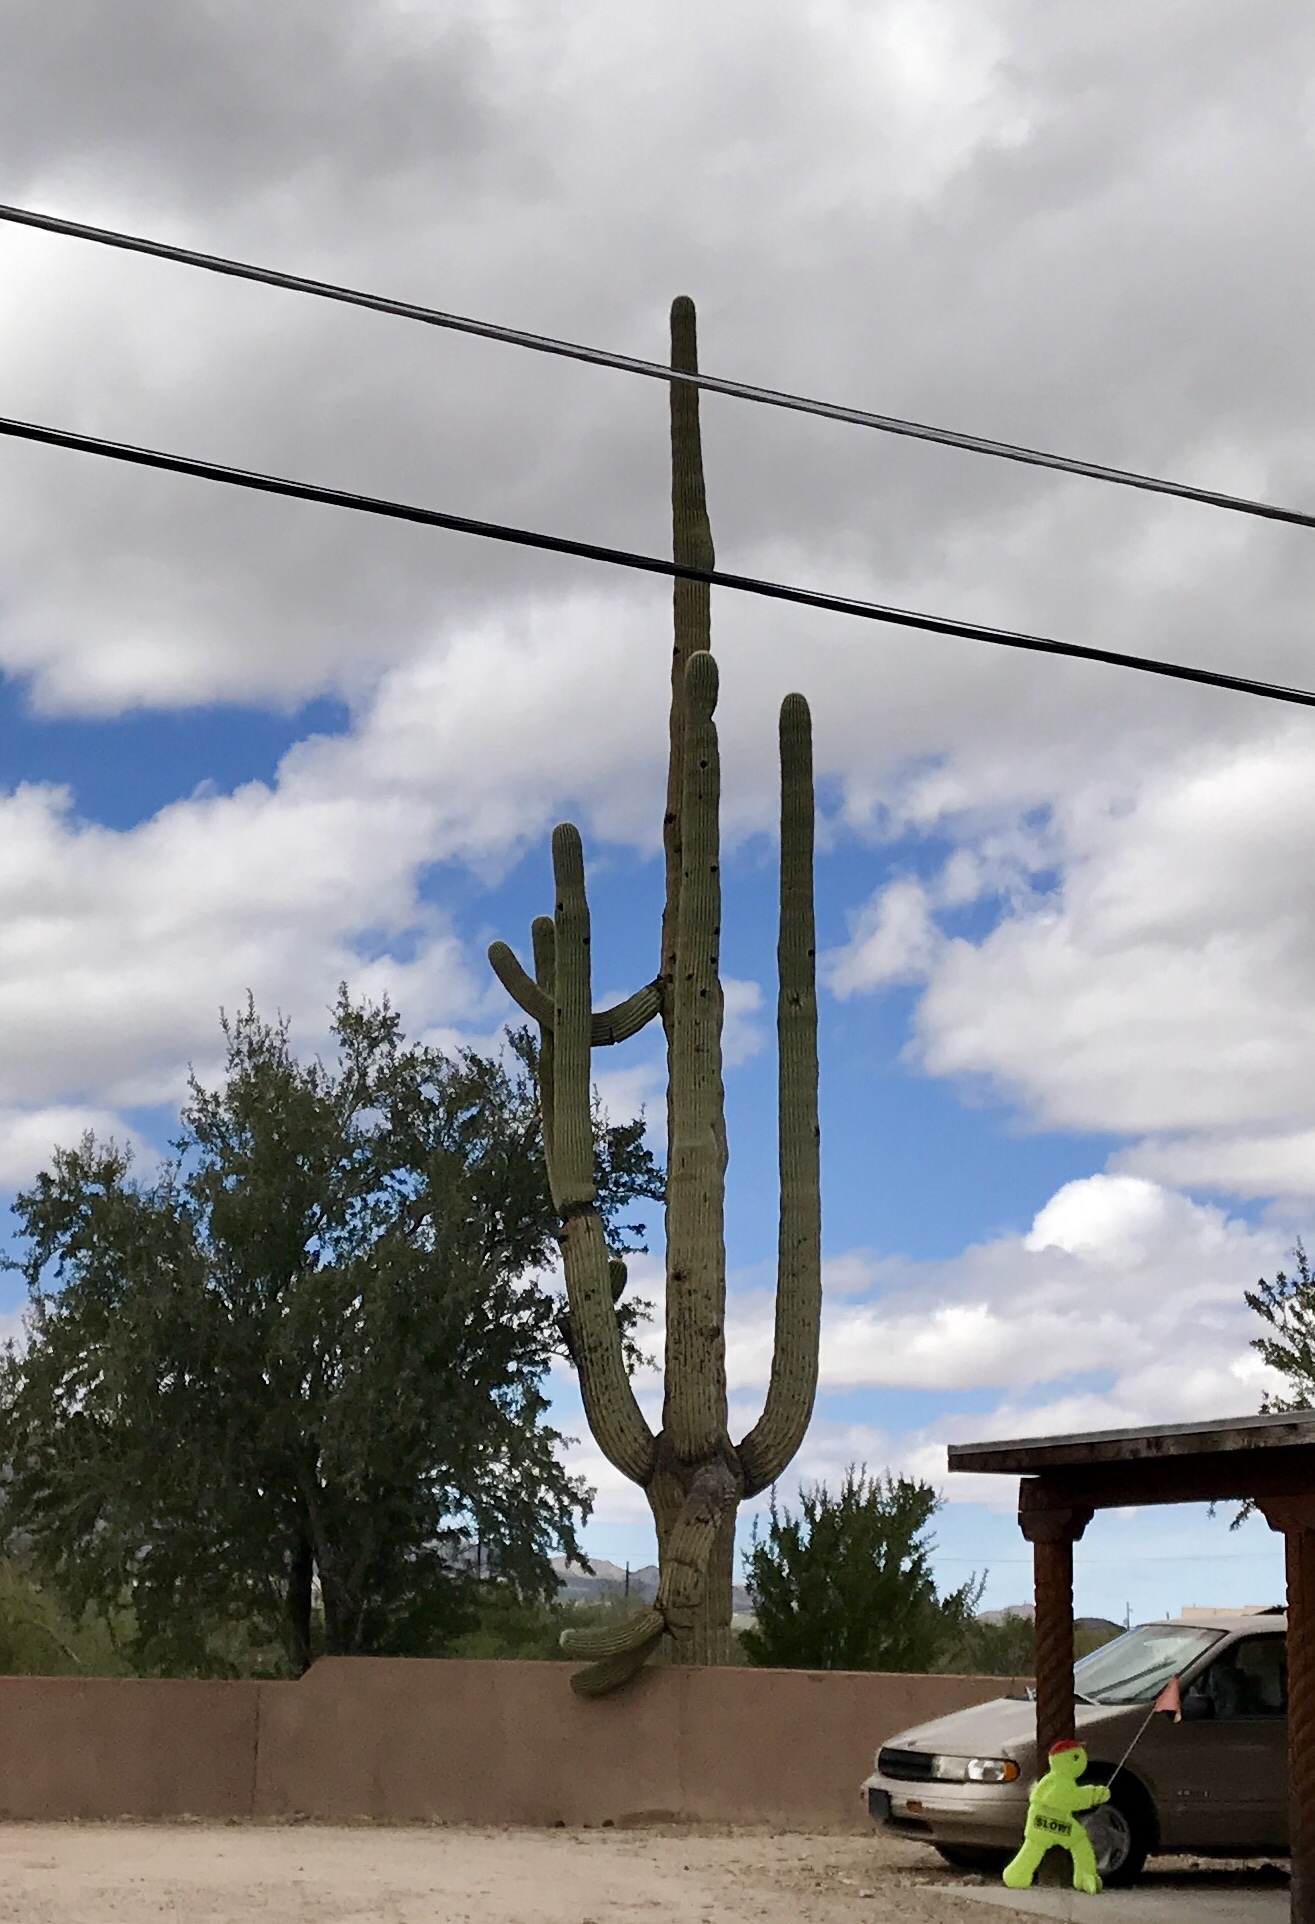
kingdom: Plantae
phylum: Tracheophyta
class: Magnoliopsida
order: Caryophyllales
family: Cactaceae
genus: Carnegiea
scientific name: Carnegiea gigantea
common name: Saguaro
